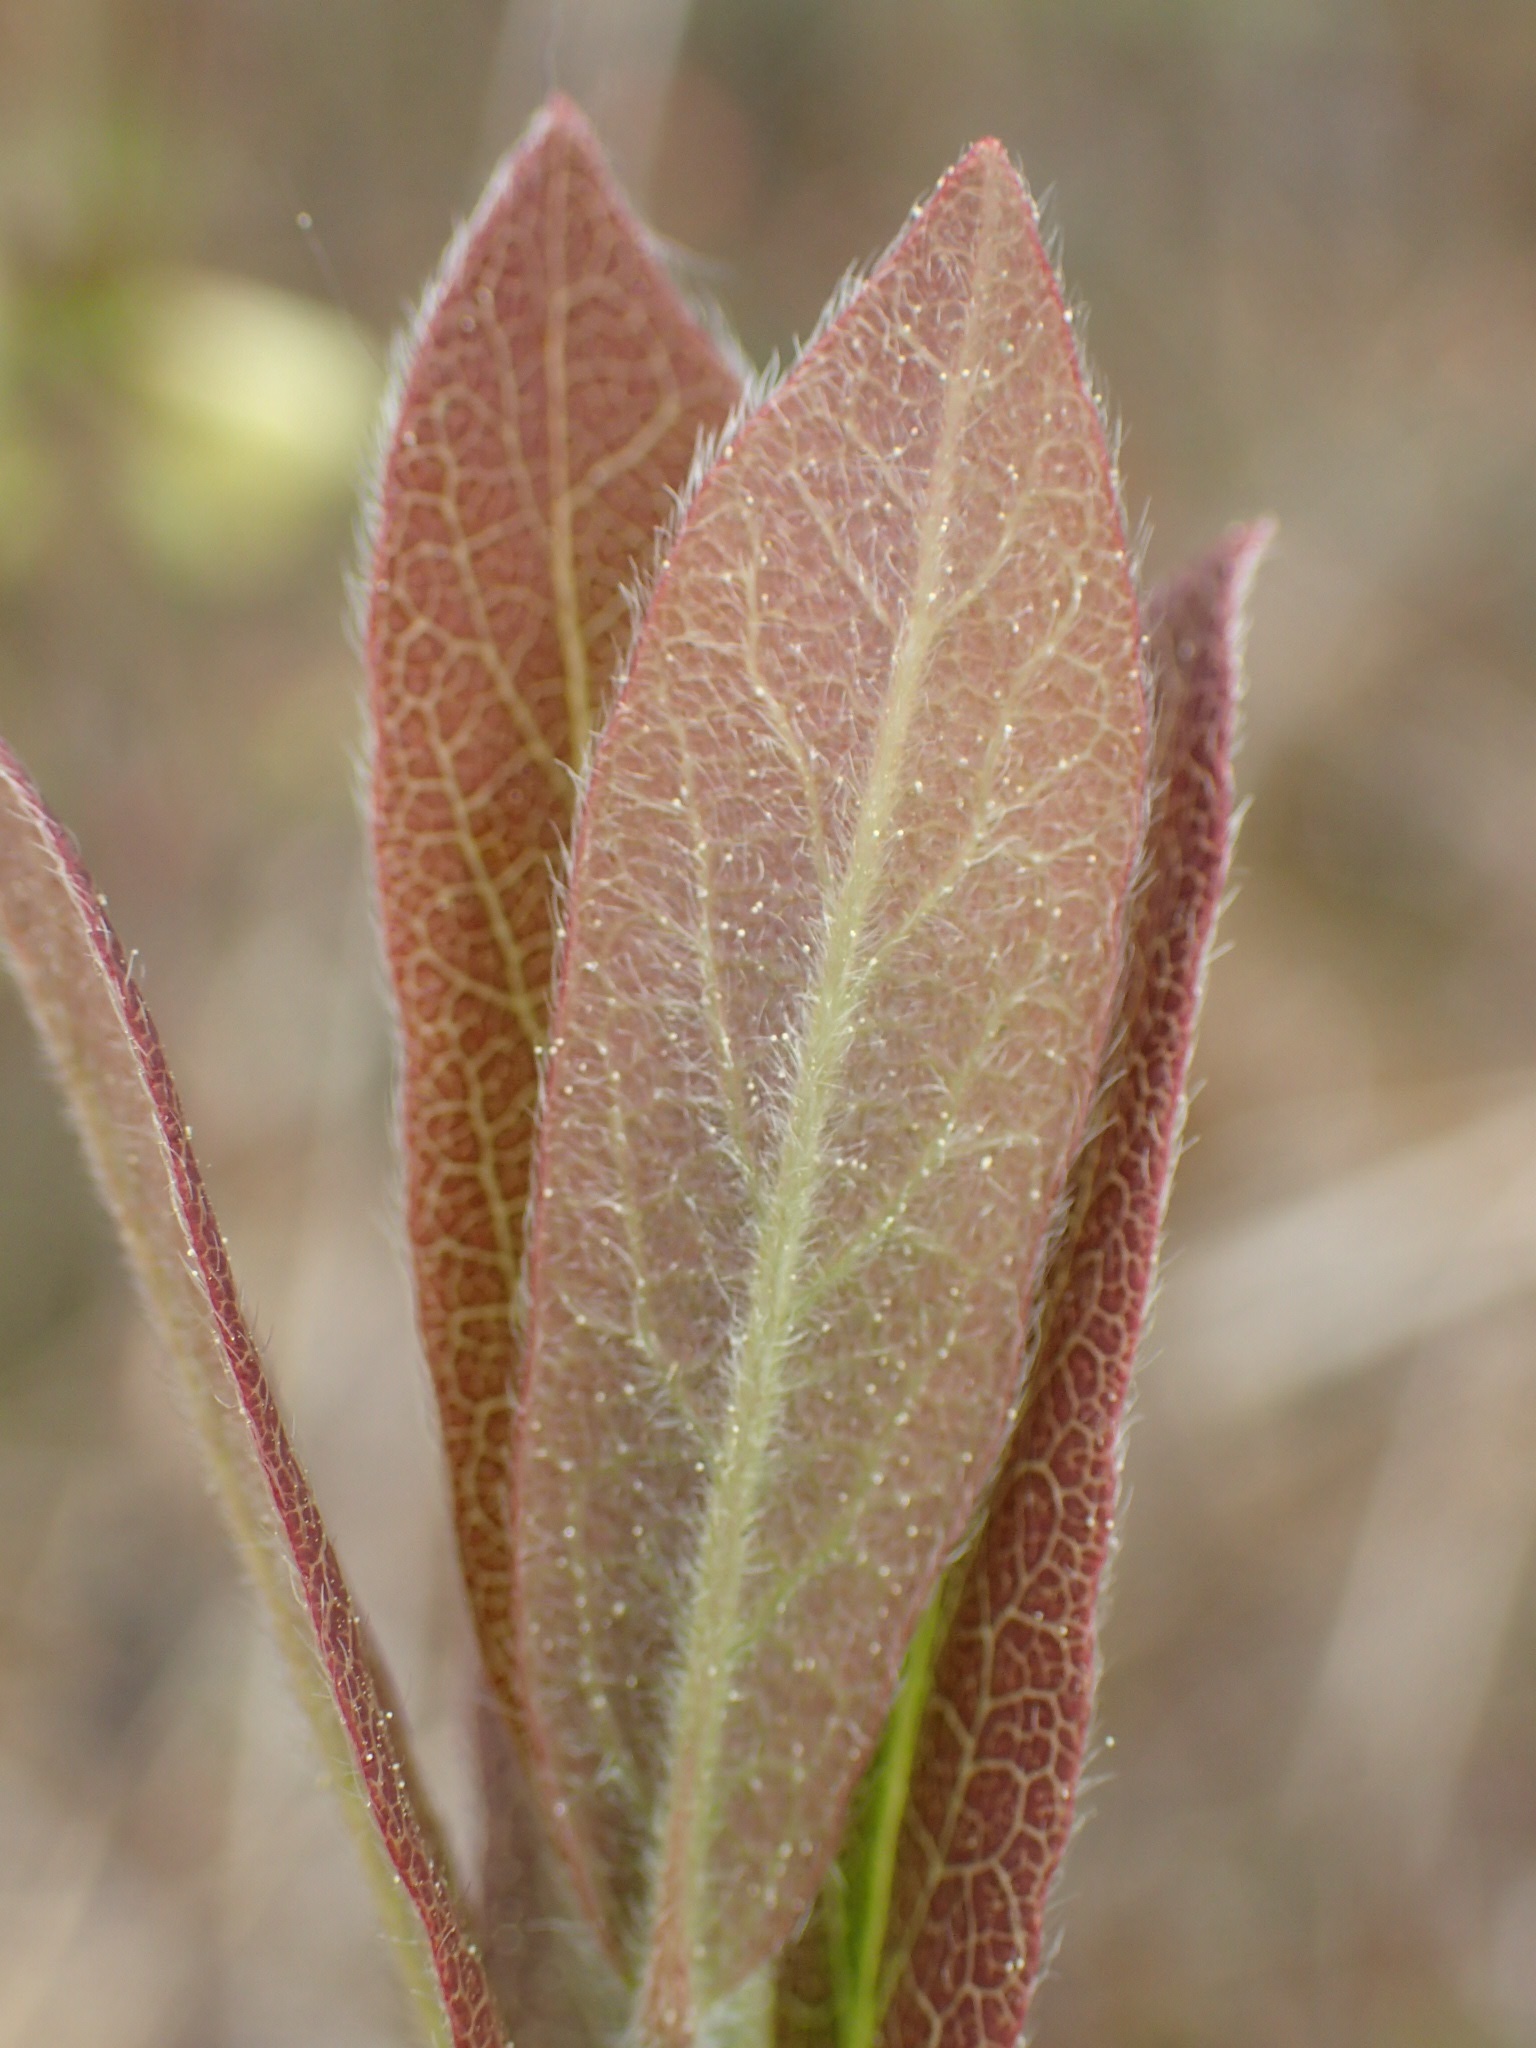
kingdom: Plantae
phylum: Tracheophyta
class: Magnoliopsida
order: Dipsacales
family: Caprifoliaceae
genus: Lonicera
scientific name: Lonicera villosa
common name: Mountain fly-honeysuckle
